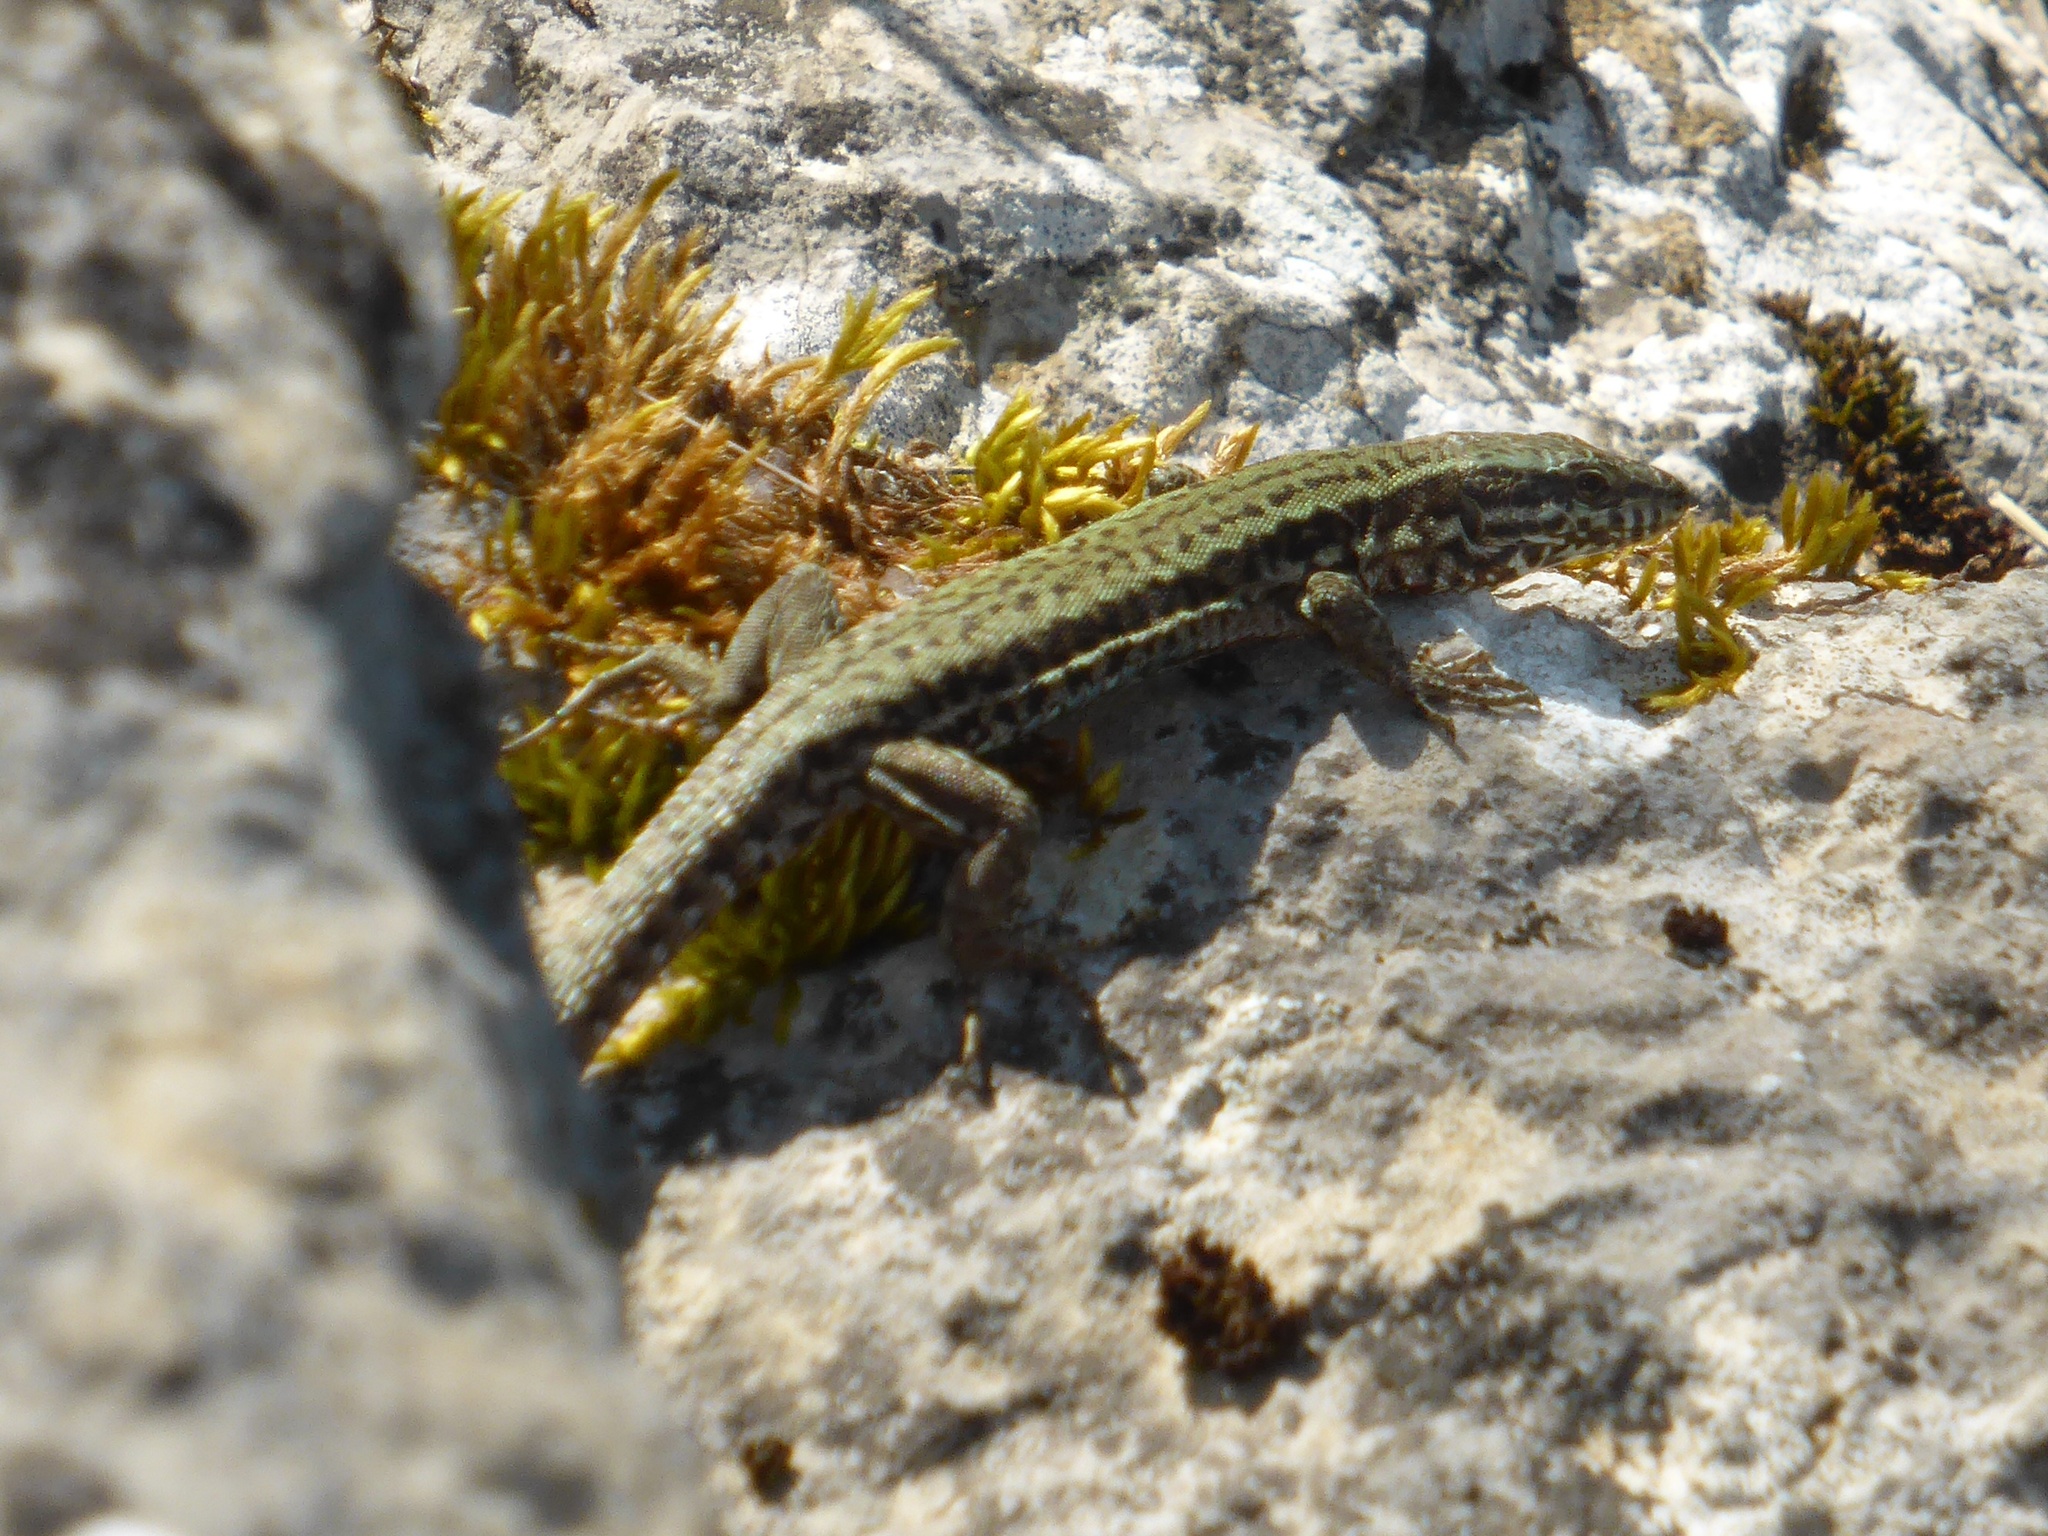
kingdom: Animalia
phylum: Chordata
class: Squamata
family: Lacertidae
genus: Podarcis
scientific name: Podarcis muralis
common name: Common wall lizard
